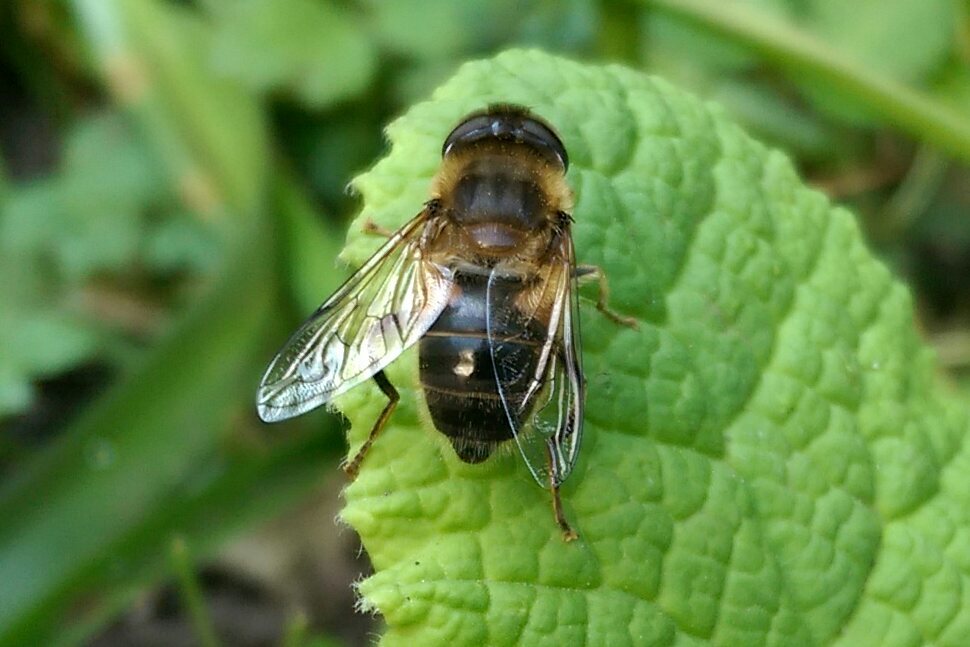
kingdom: Animalia
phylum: Arthropoda
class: Insecta
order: Diptera
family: Syrphidae
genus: Eristalis
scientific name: Eristalis pertinax
